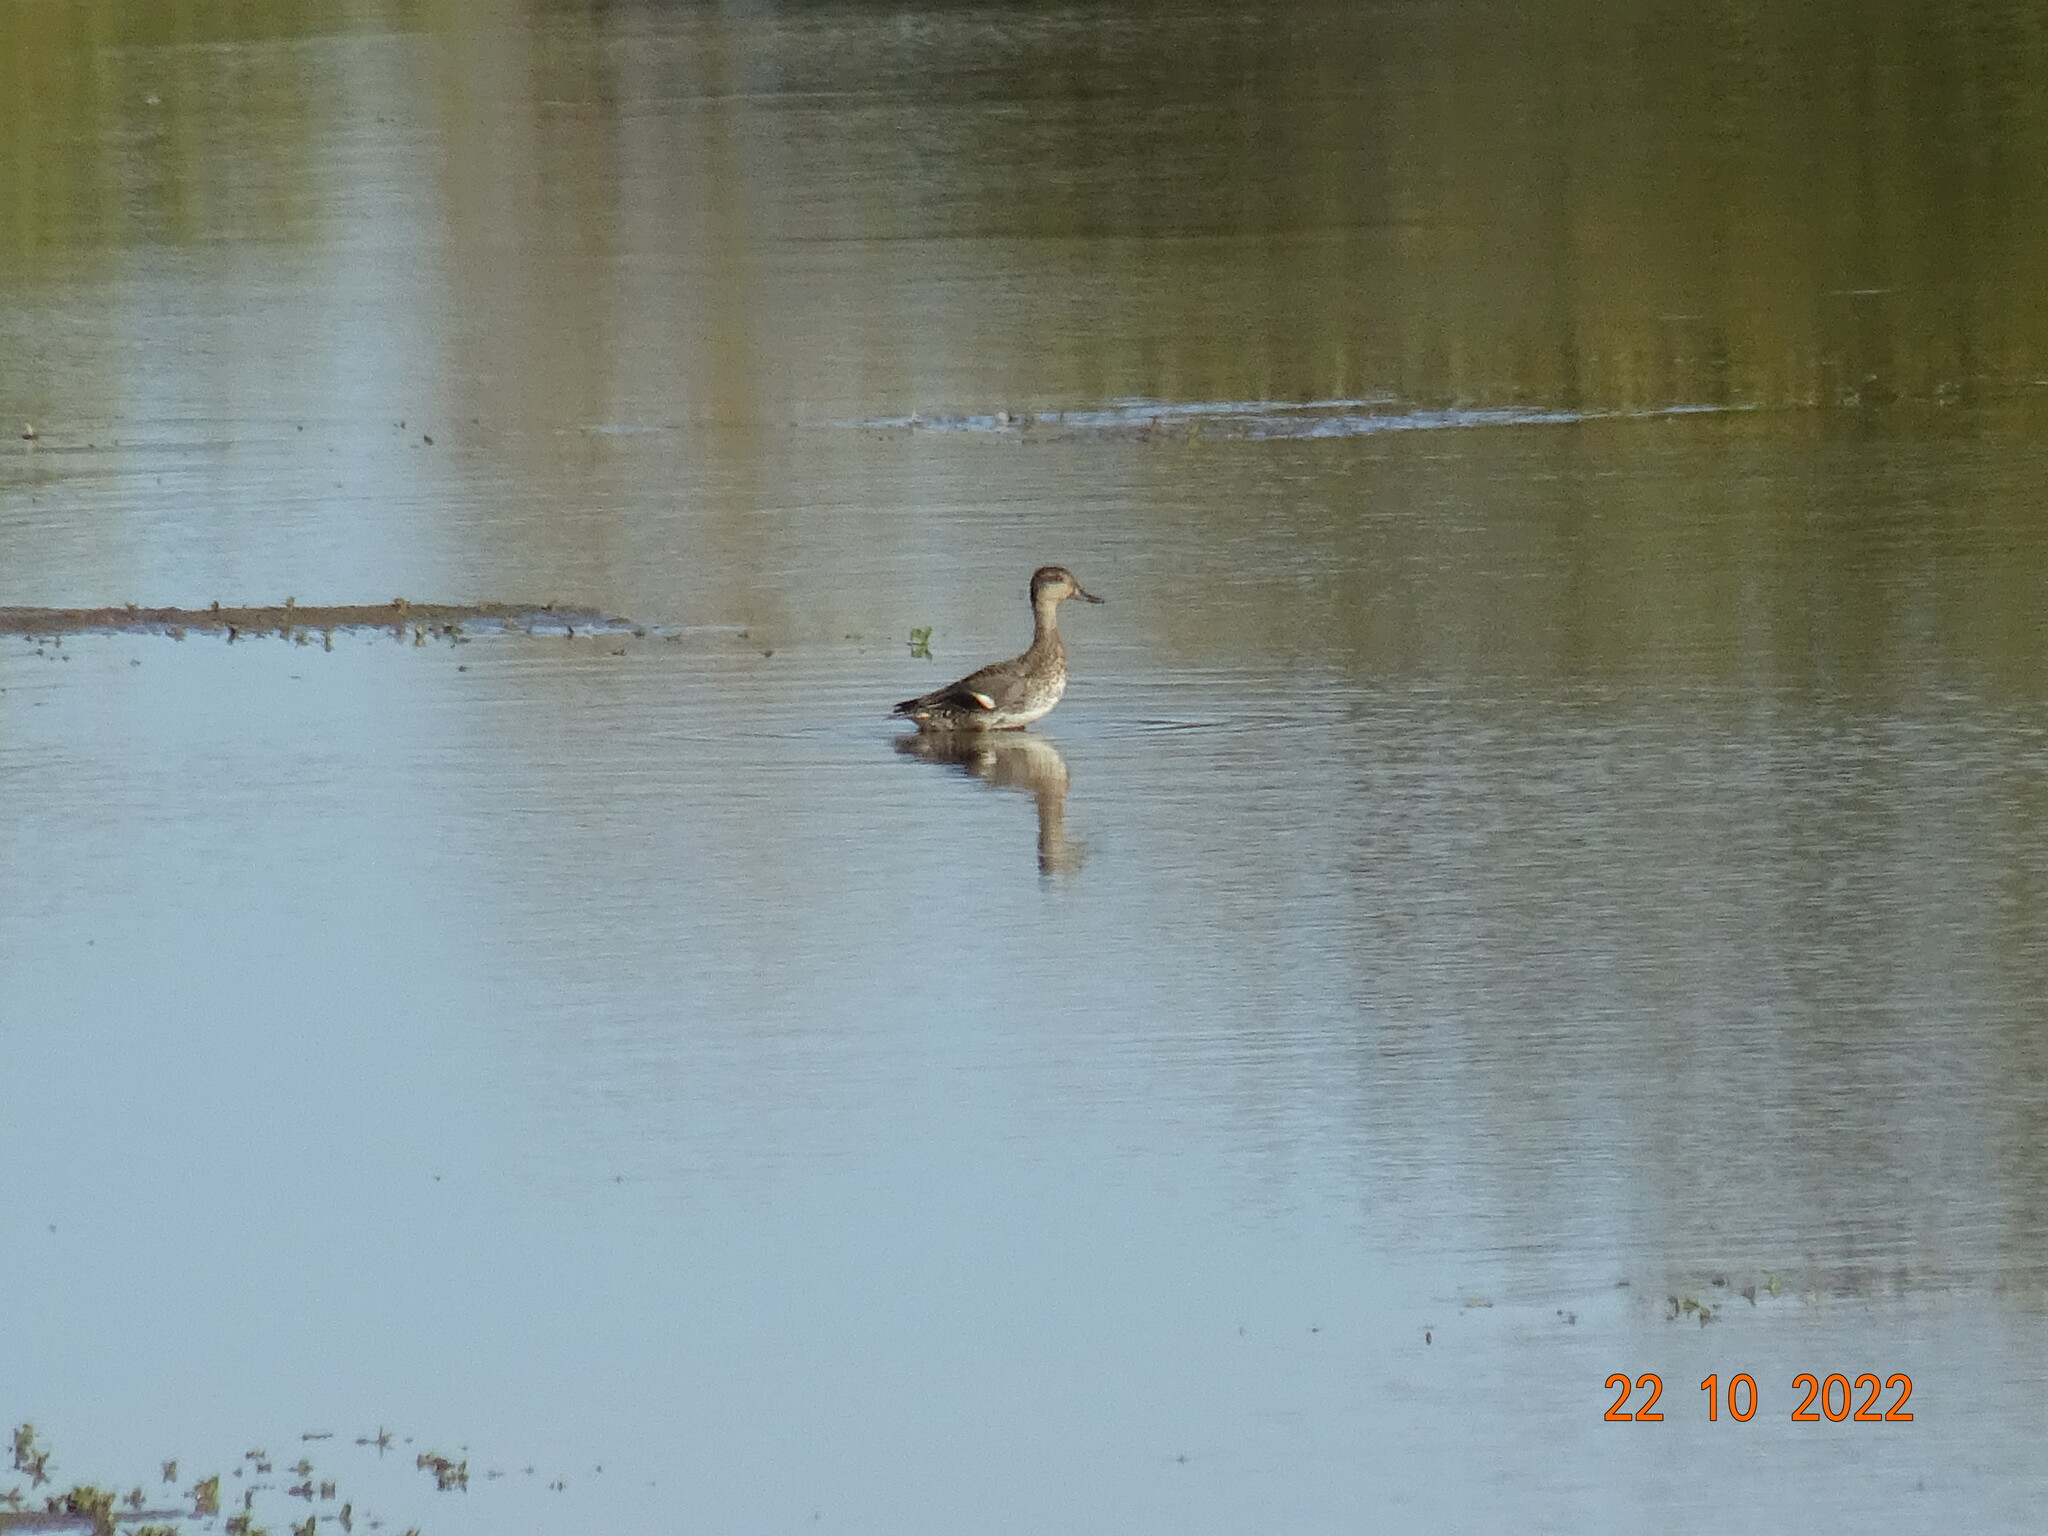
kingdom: Animalia
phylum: Chordata
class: Aves
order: Anseriformes
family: Anatidae
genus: Anas
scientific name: Anas crecca
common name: Eurasian teal
